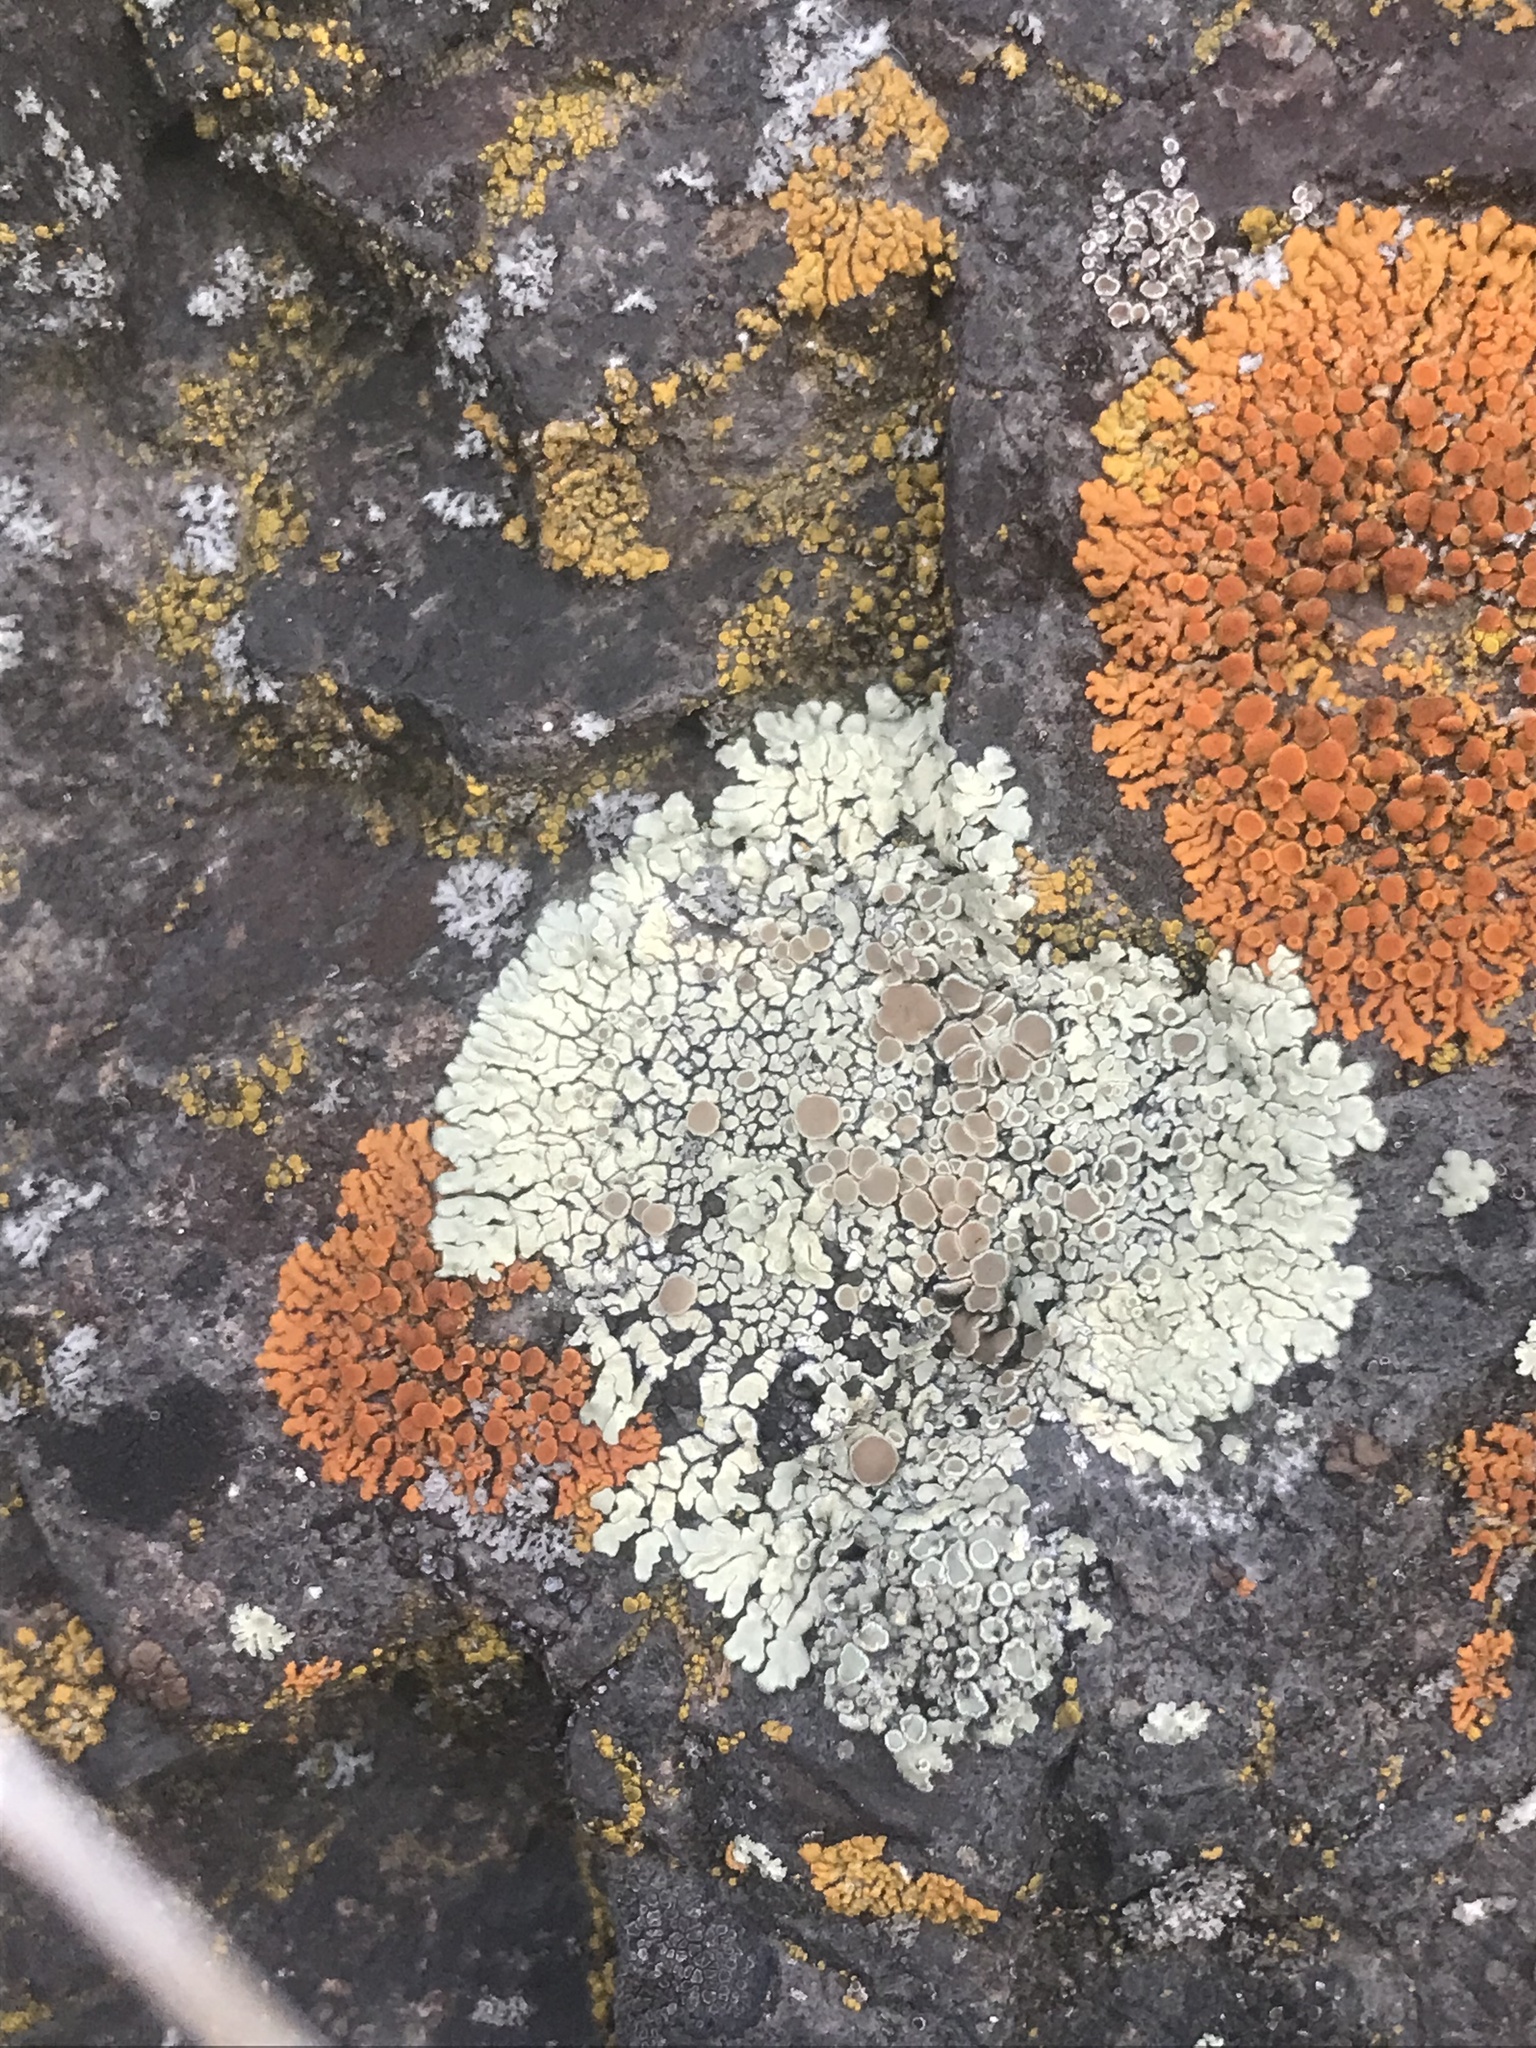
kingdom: Fungi
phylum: Ascomycota
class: Lecanoromycetes
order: Lecanorales
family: Lecanoraceae
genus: Protoparmeliopsis
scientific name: Protoparmeliopsis muralis
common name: Stonewall rim lichen
